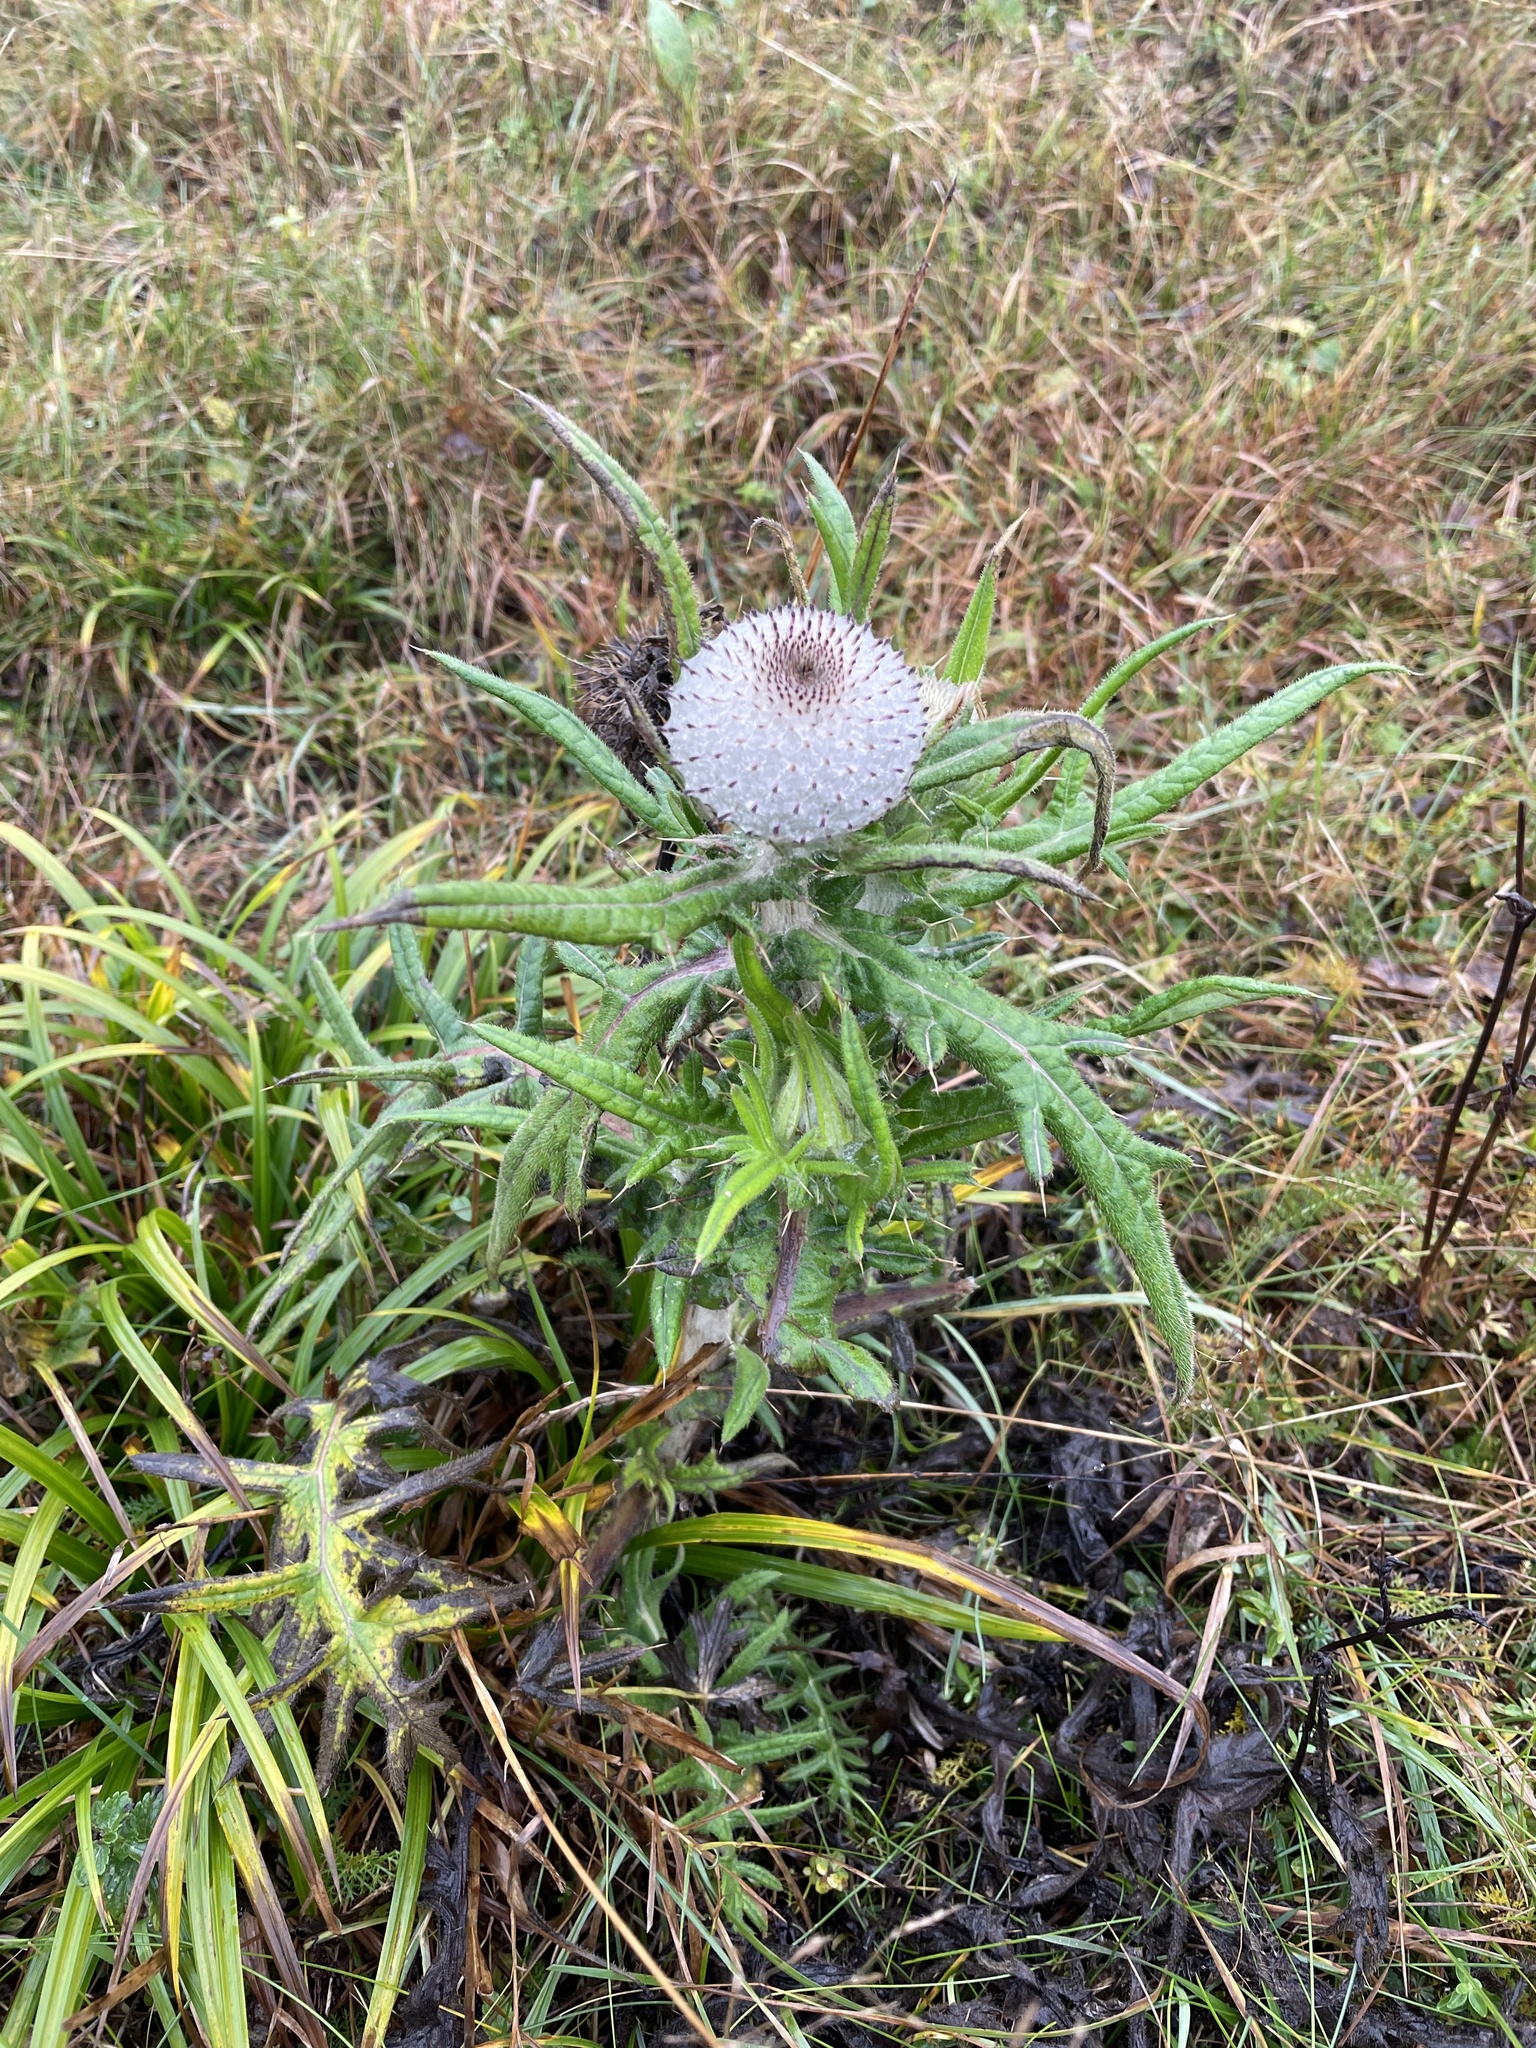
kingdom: Plantae
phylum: Tracheophyta
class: Magnoliopsida
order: Asterales
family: Asteraceae
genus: Lophiolepis
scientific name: Lophiolepis eriophora
